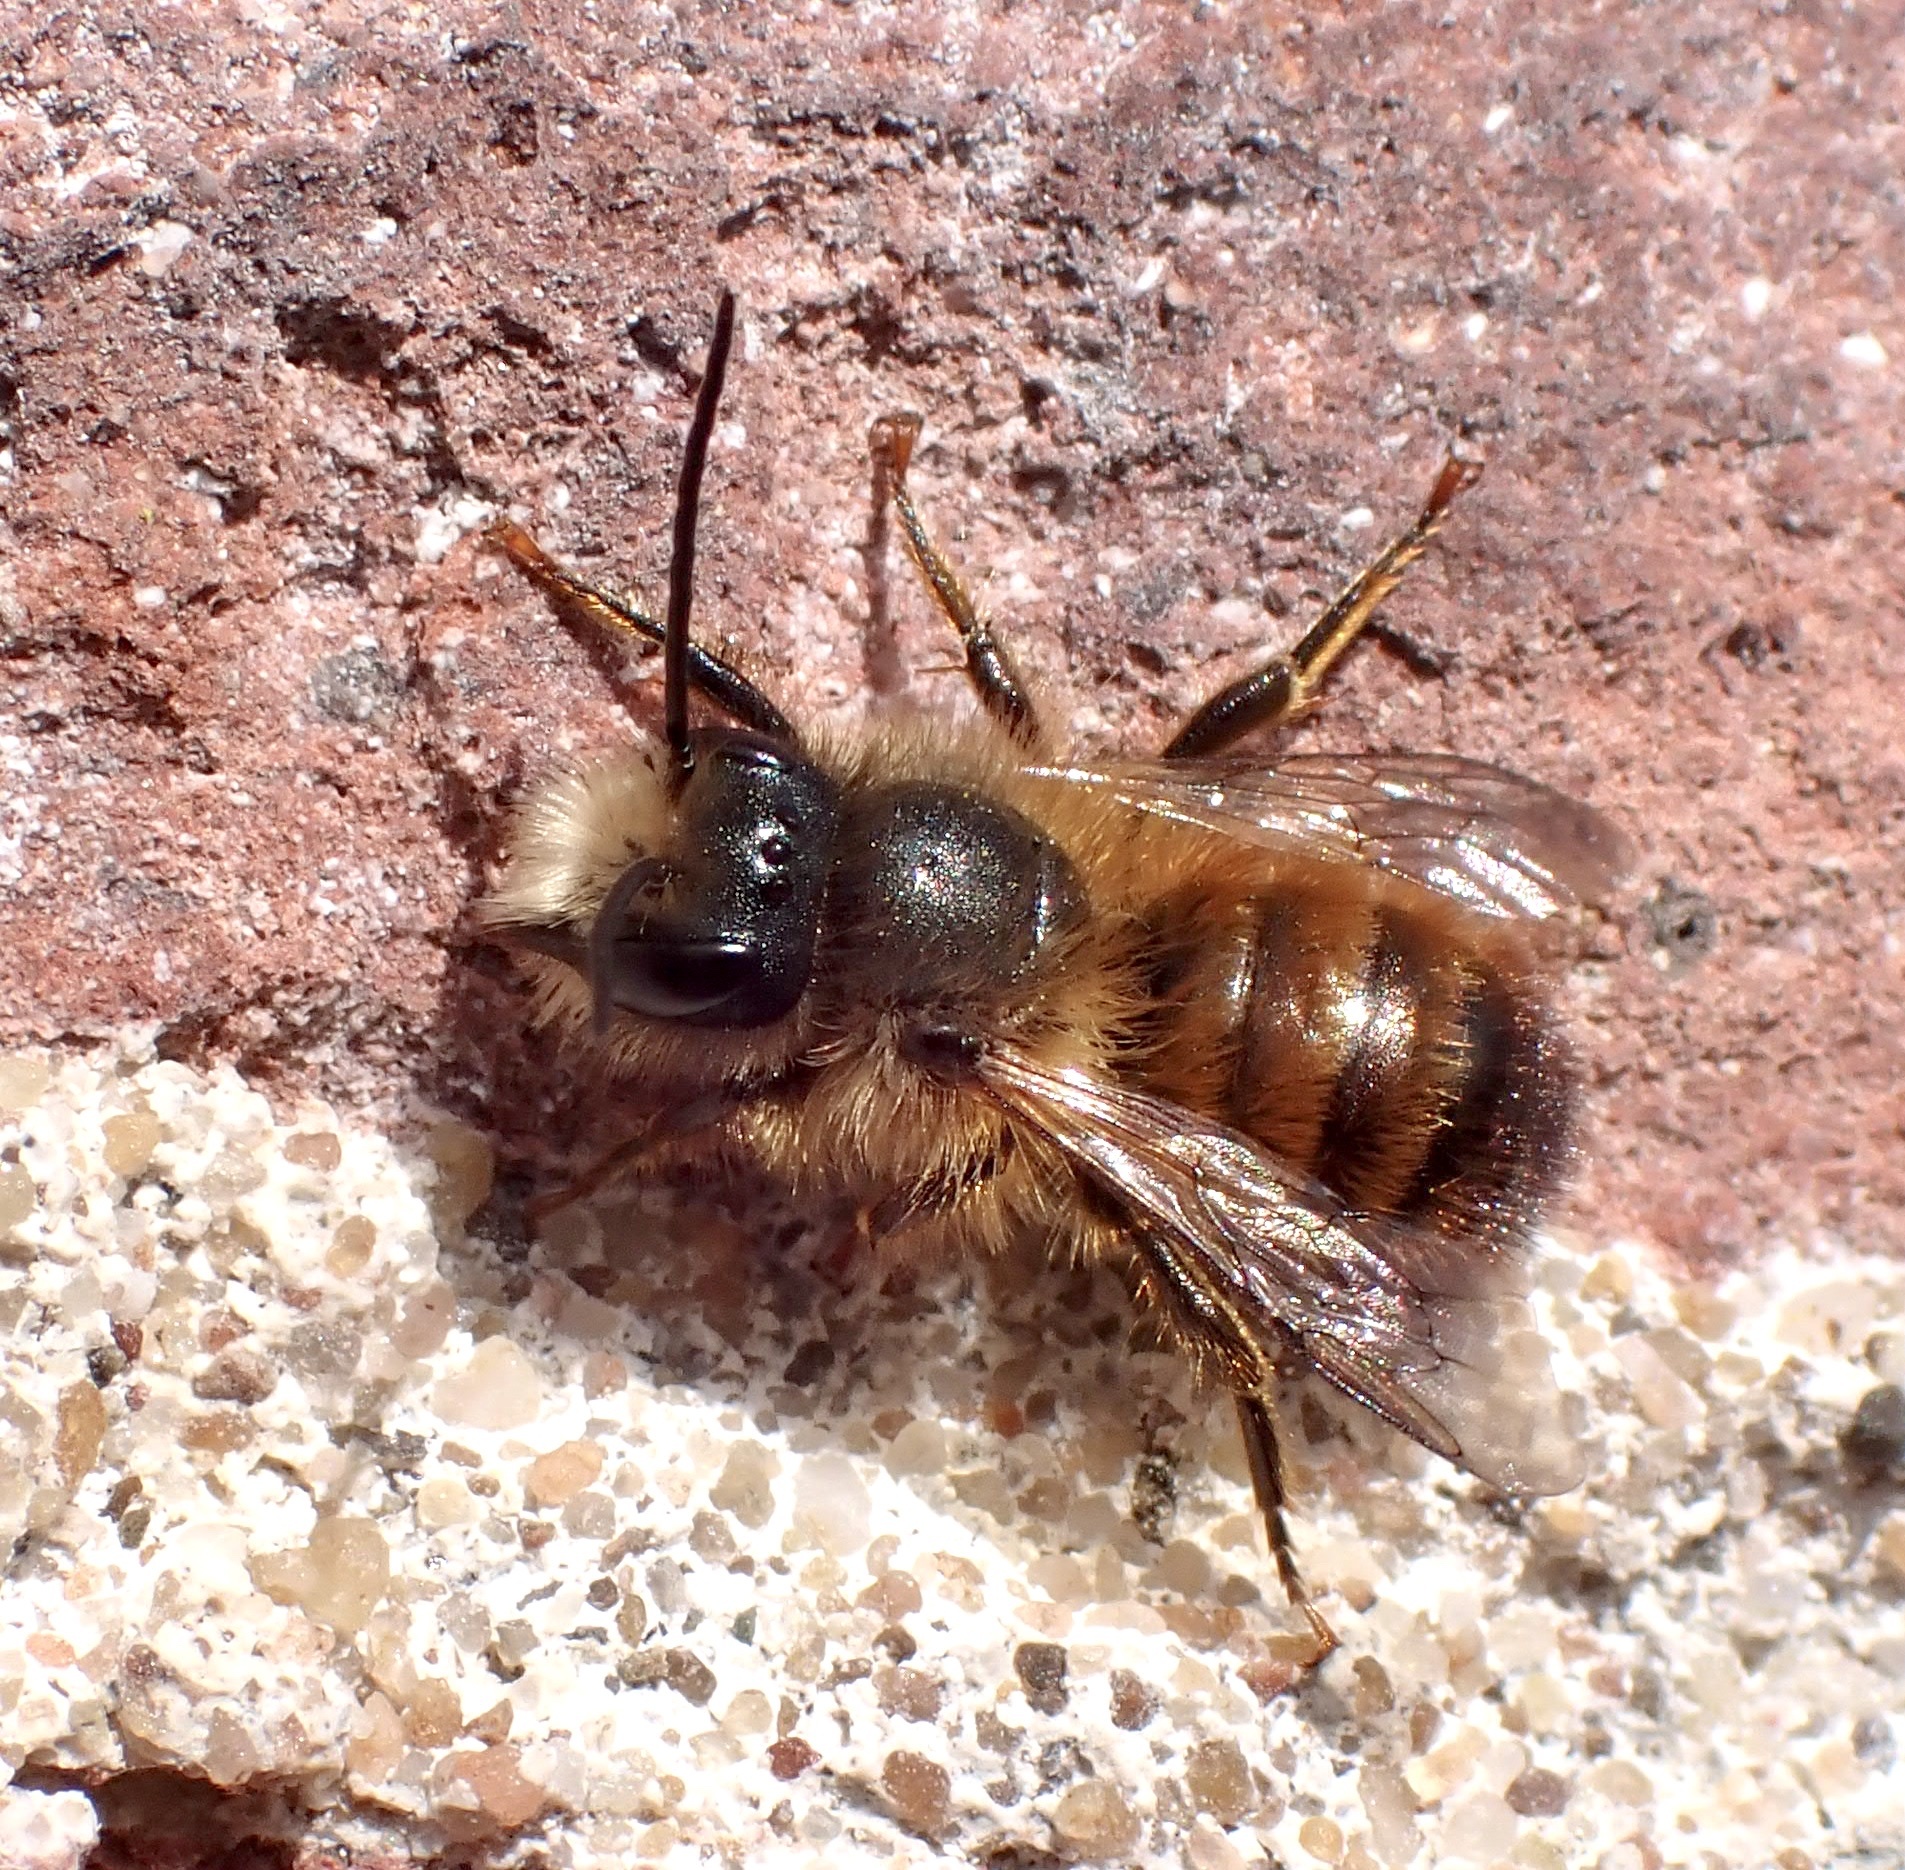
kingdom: Animalia
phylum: Arthropoda
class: Insecta
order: Hymenoptera
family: Megachilidae
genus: Osmia
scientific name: Osmia bicornis
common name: Red mason bee
